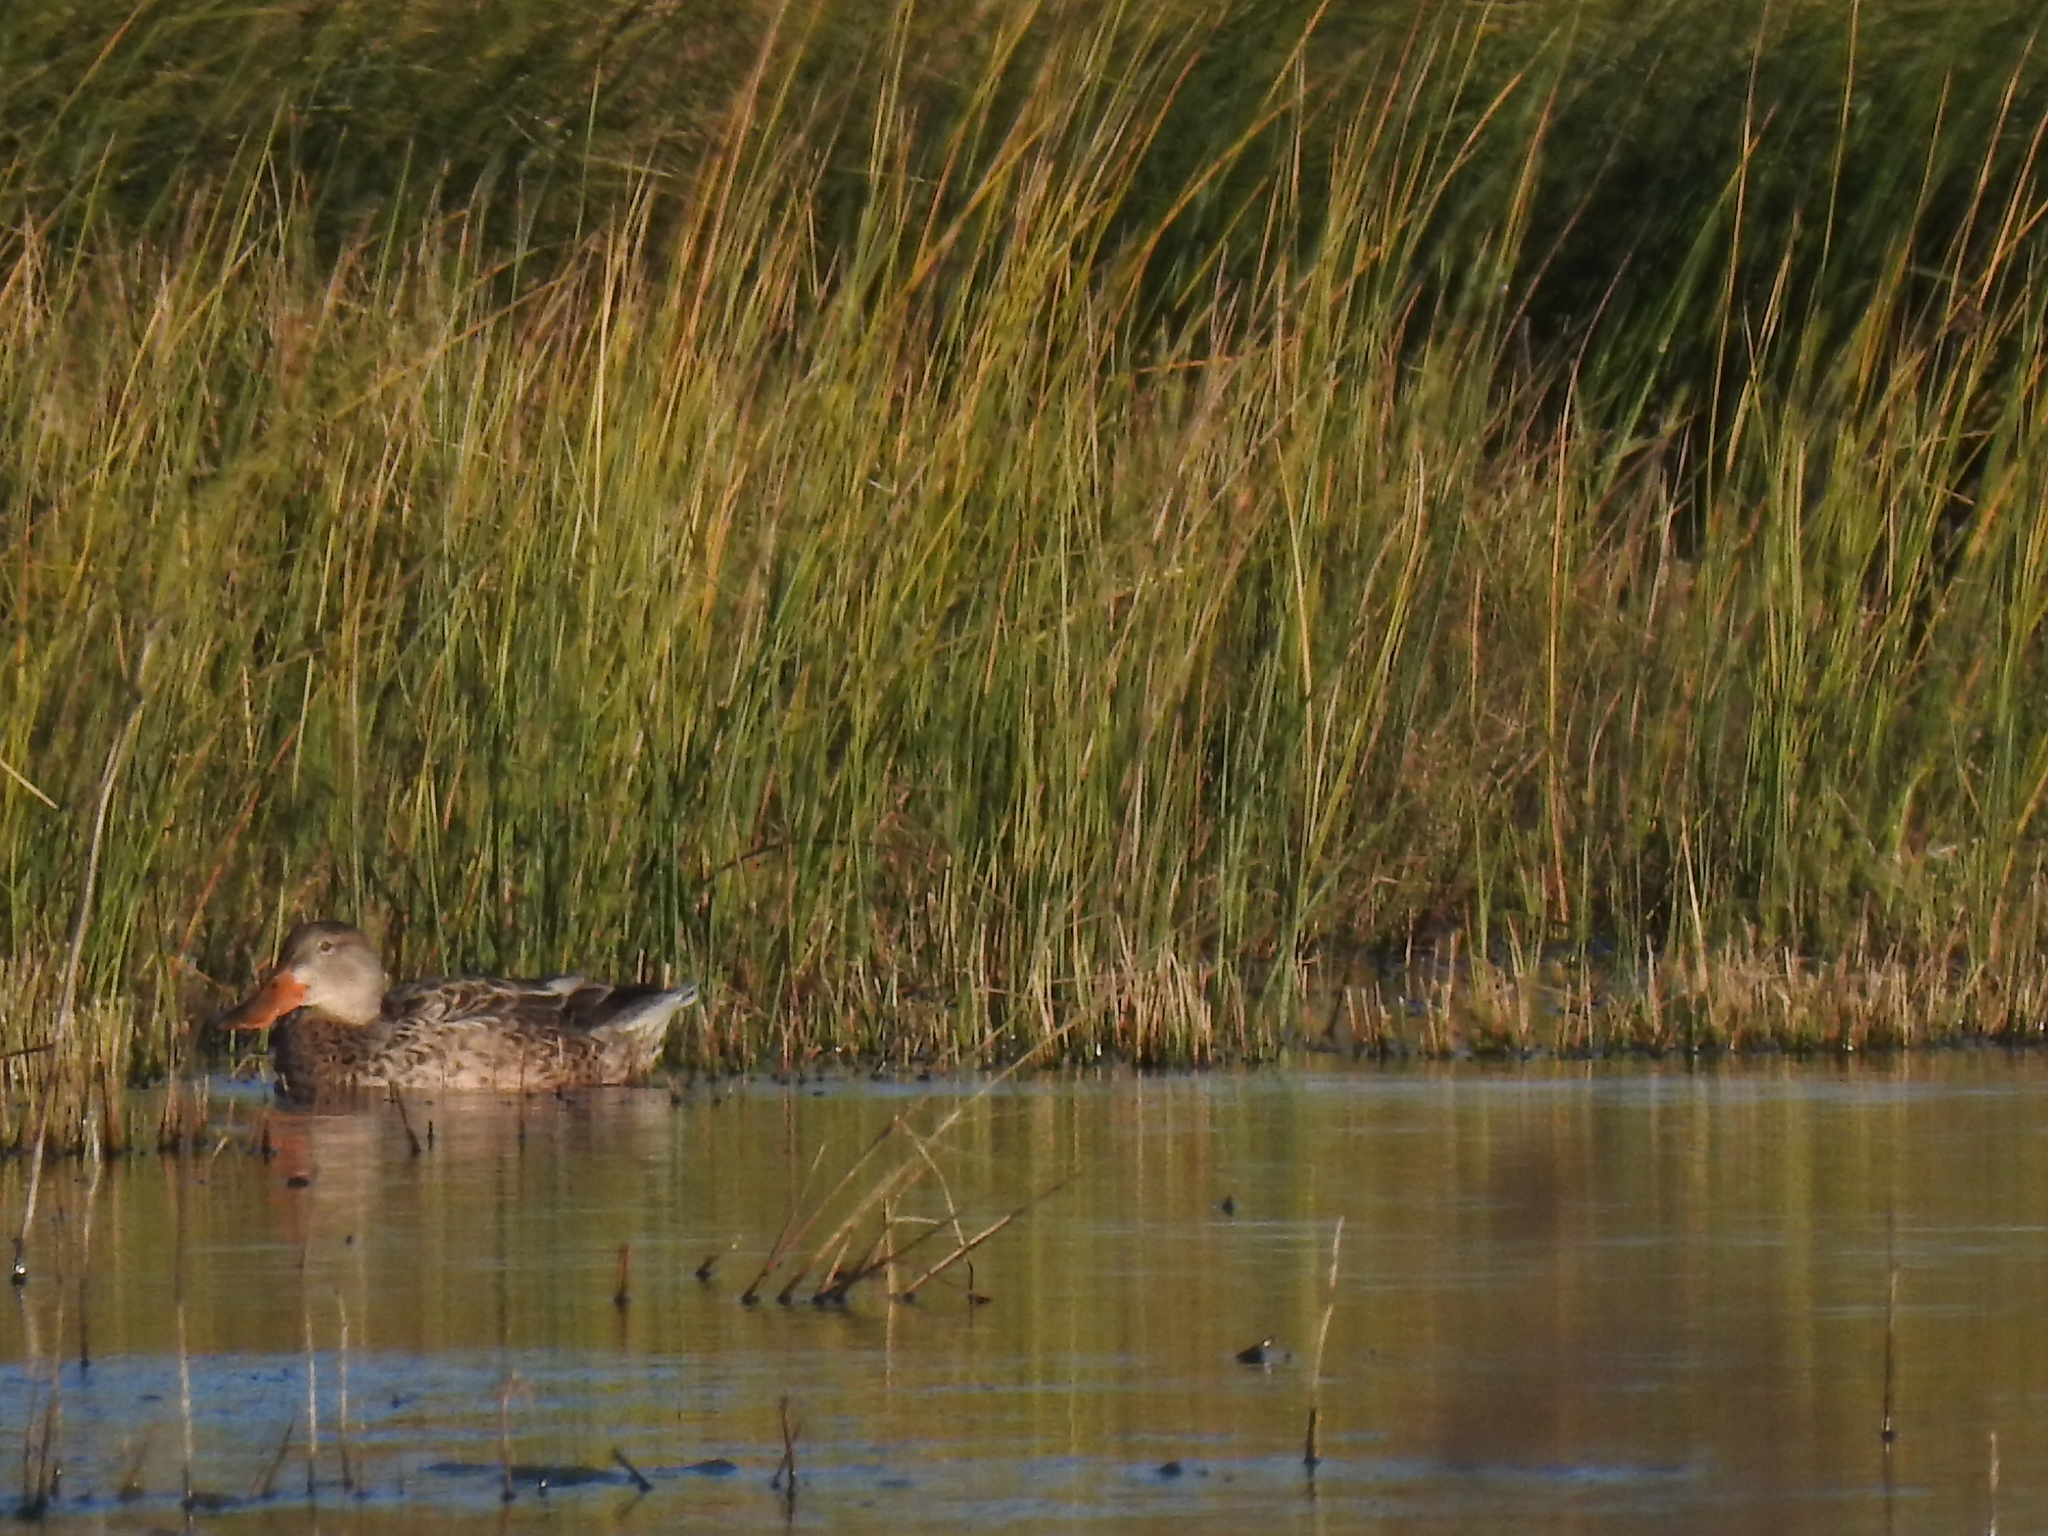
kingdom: Animalia
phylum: Chordata
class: Aves
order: Anseriformes
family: Anatidae
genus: Spatula
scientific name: Spatula clypeata
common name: Northern shoveler
